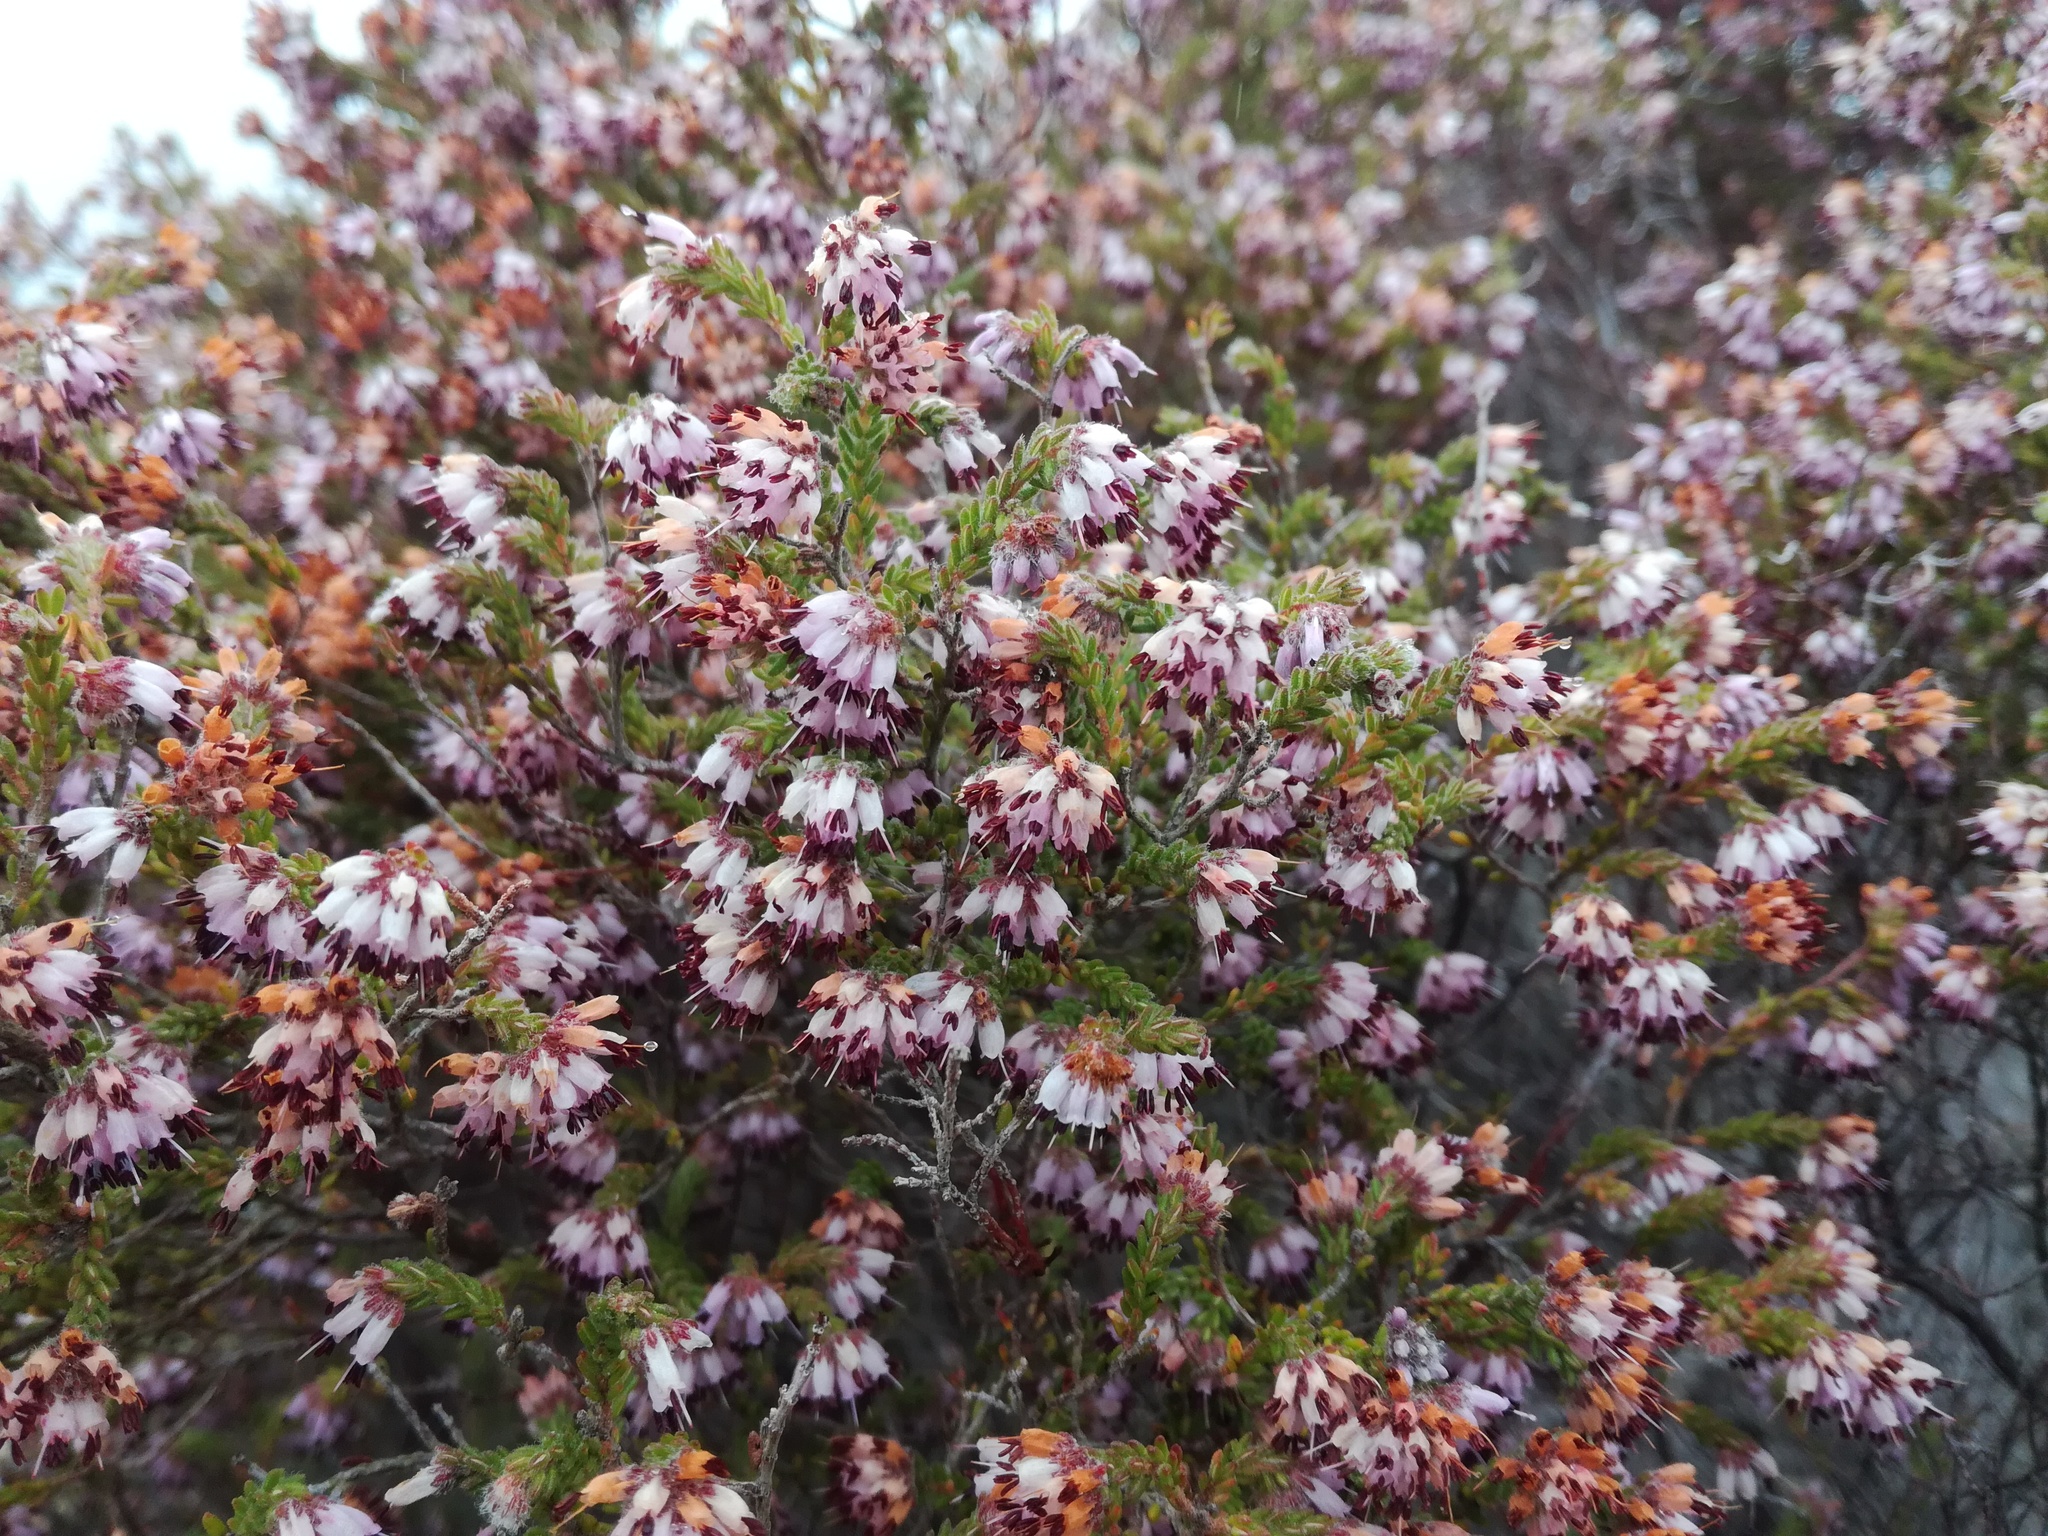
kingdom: Plantae
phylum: Tracheophyta
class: Magnoliopsida
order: Ericales
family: Ericaceae
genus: Erica
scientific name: Erica ericoides
